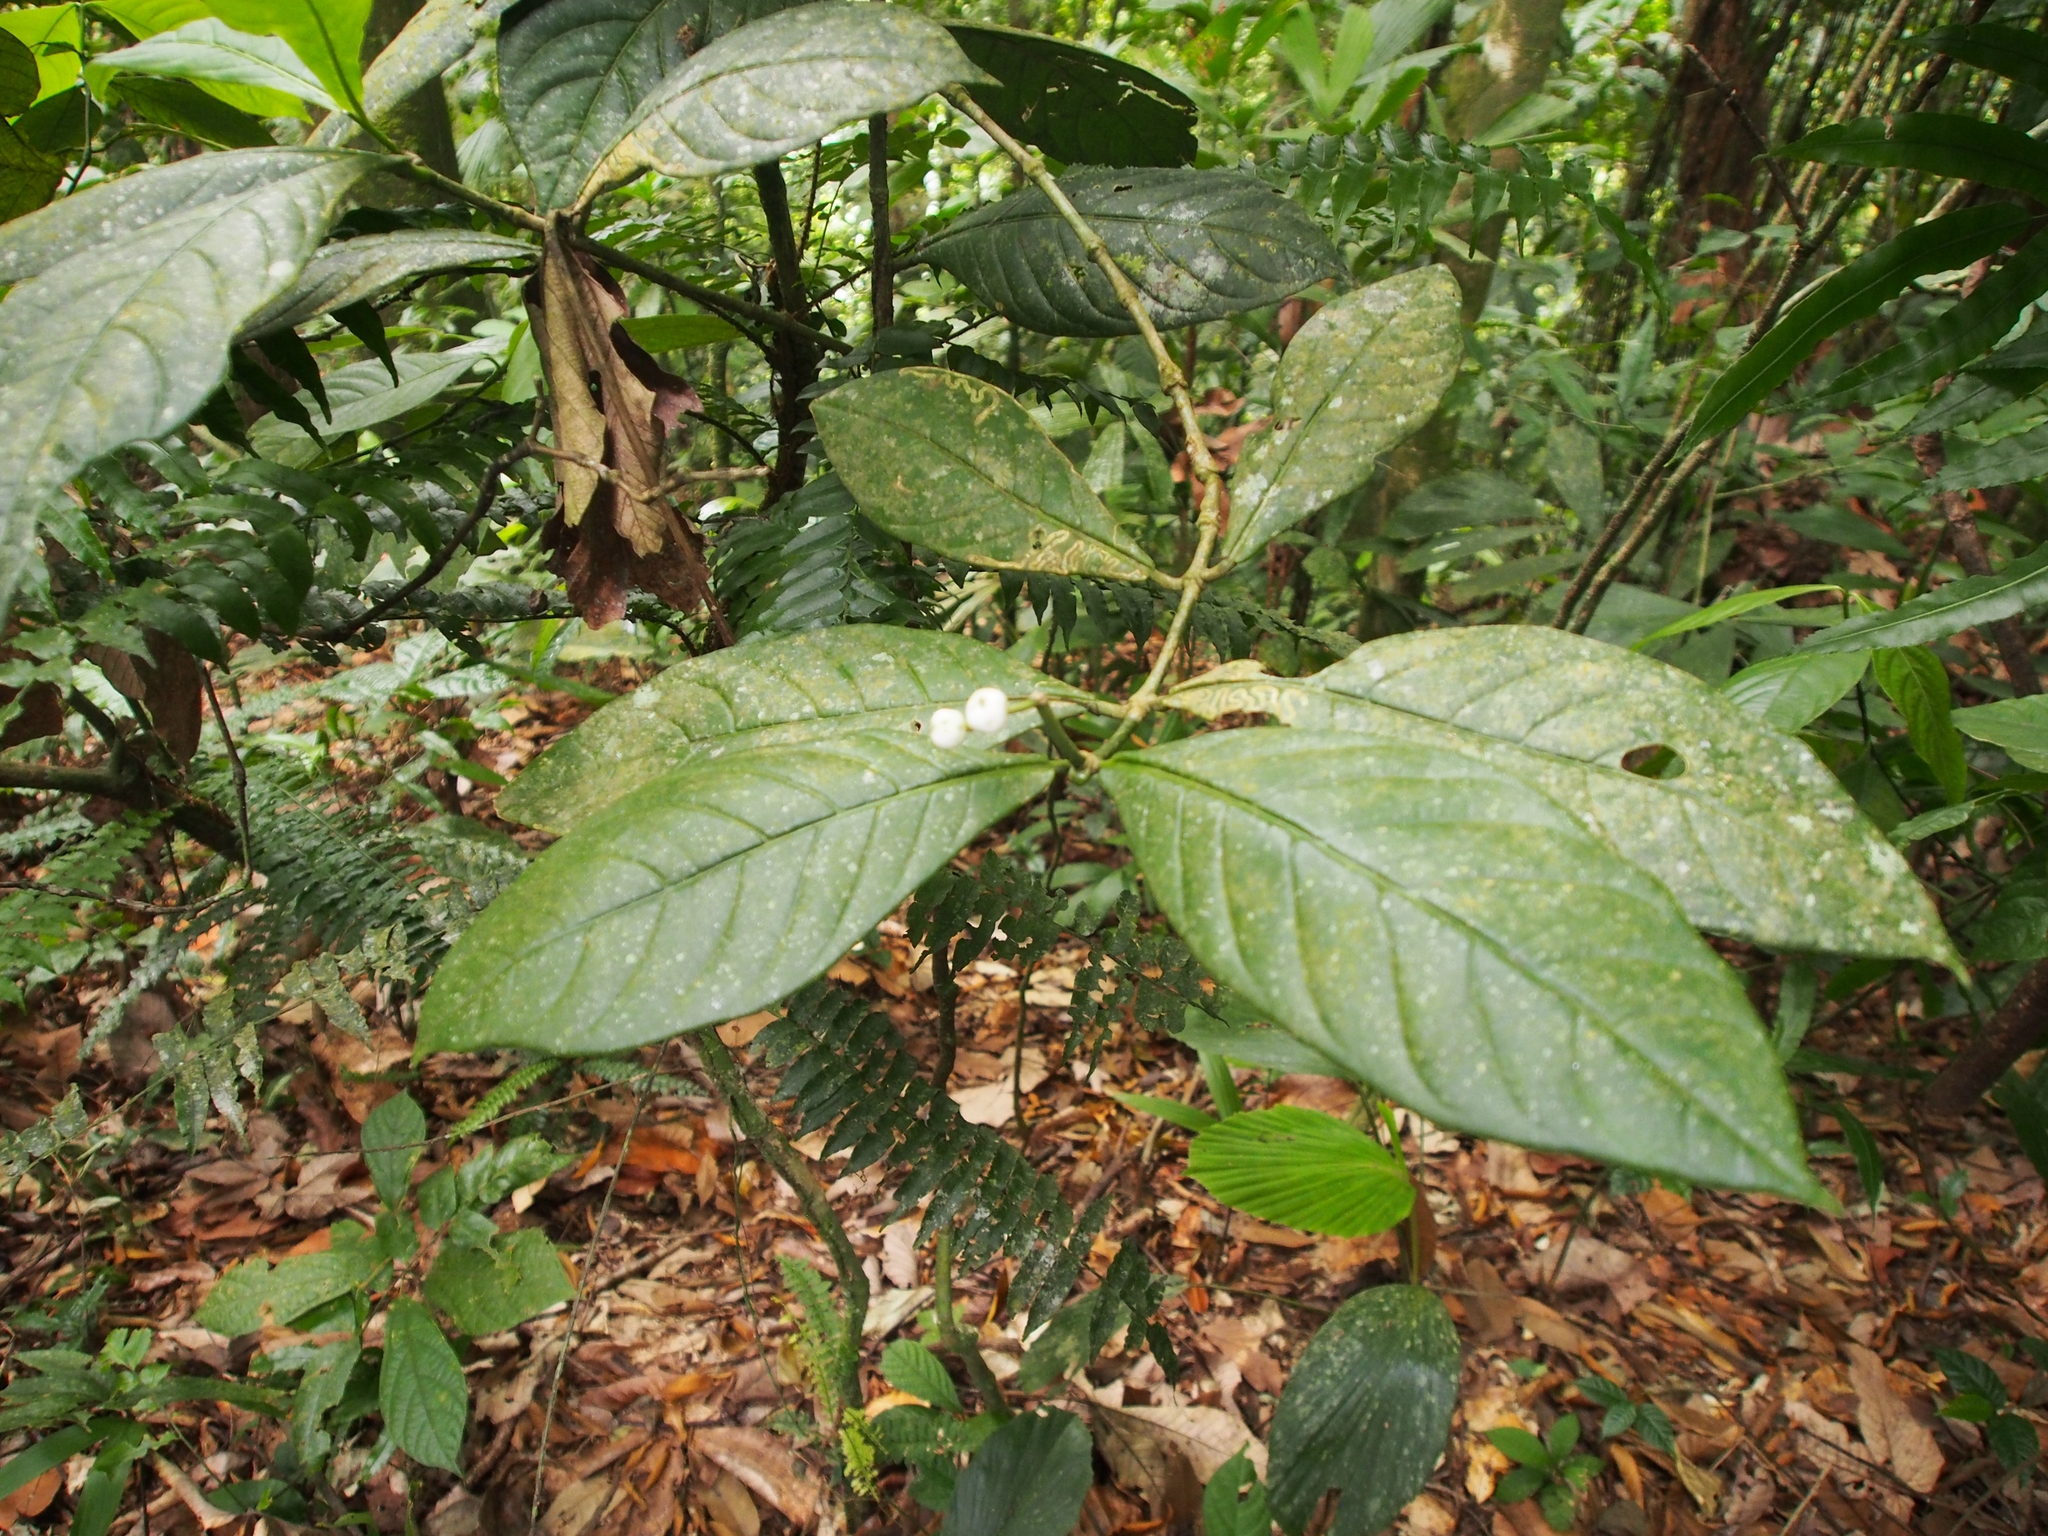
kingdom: Plantae
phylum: Tracheophyta
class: Magnoliopsida
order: Gentianales
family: Rubiaceae
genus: Rudgea
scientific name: Rudgea reducticalyx
